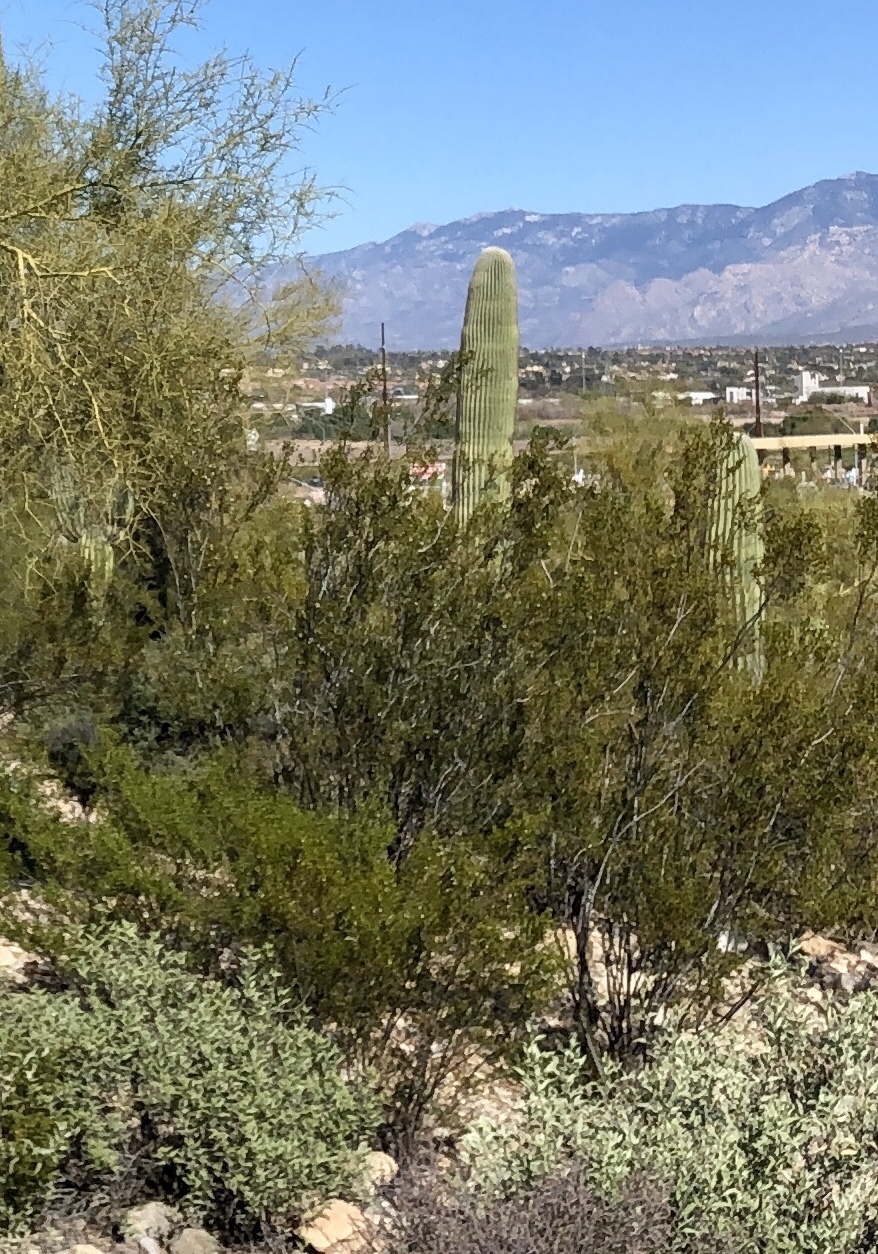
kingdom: Plantae
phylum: Tracheophyta
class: Magnoliopsida
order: Zygophyllales
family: Zygophyllaceae
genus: Larrea
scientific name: Larrea tridentata
